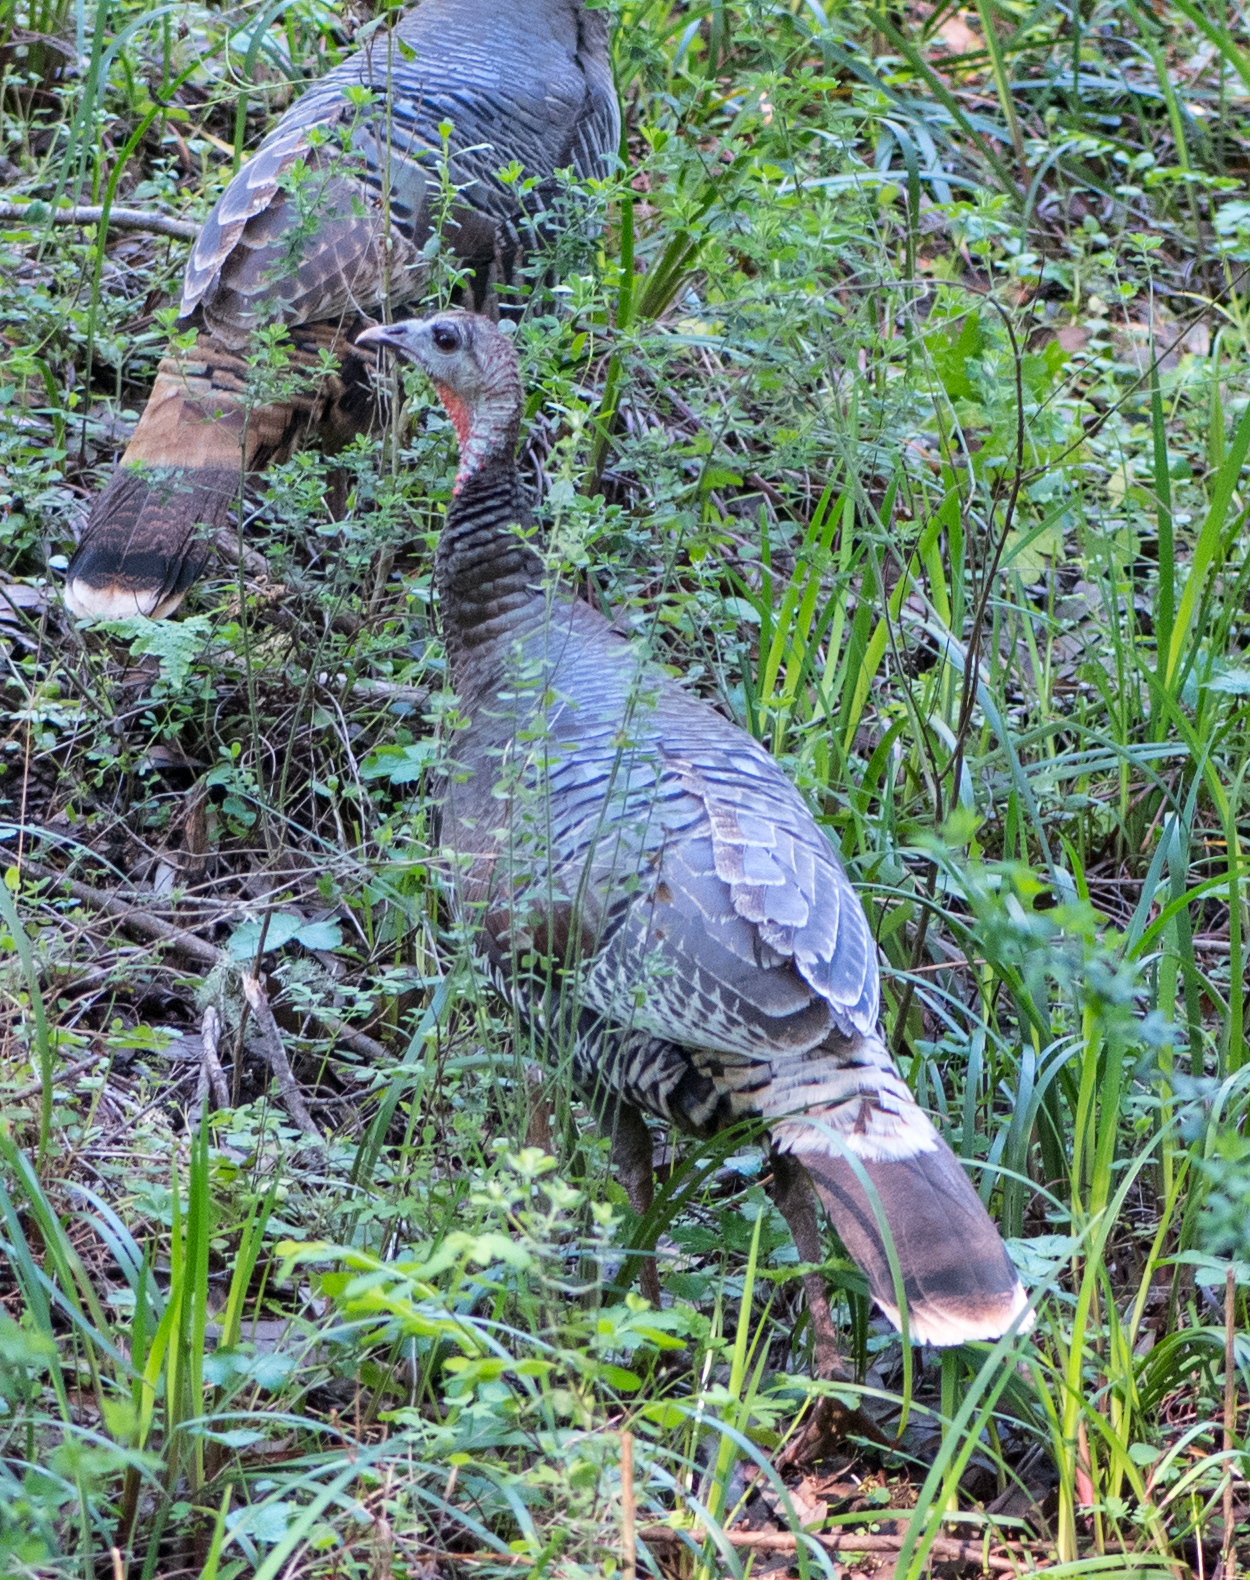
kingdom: Animalia
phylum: Chordata
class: Aves
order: Galliformes
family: Phasianidae
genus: Meleagris
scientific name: Meleagris gallopavo
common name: Wild turkey
